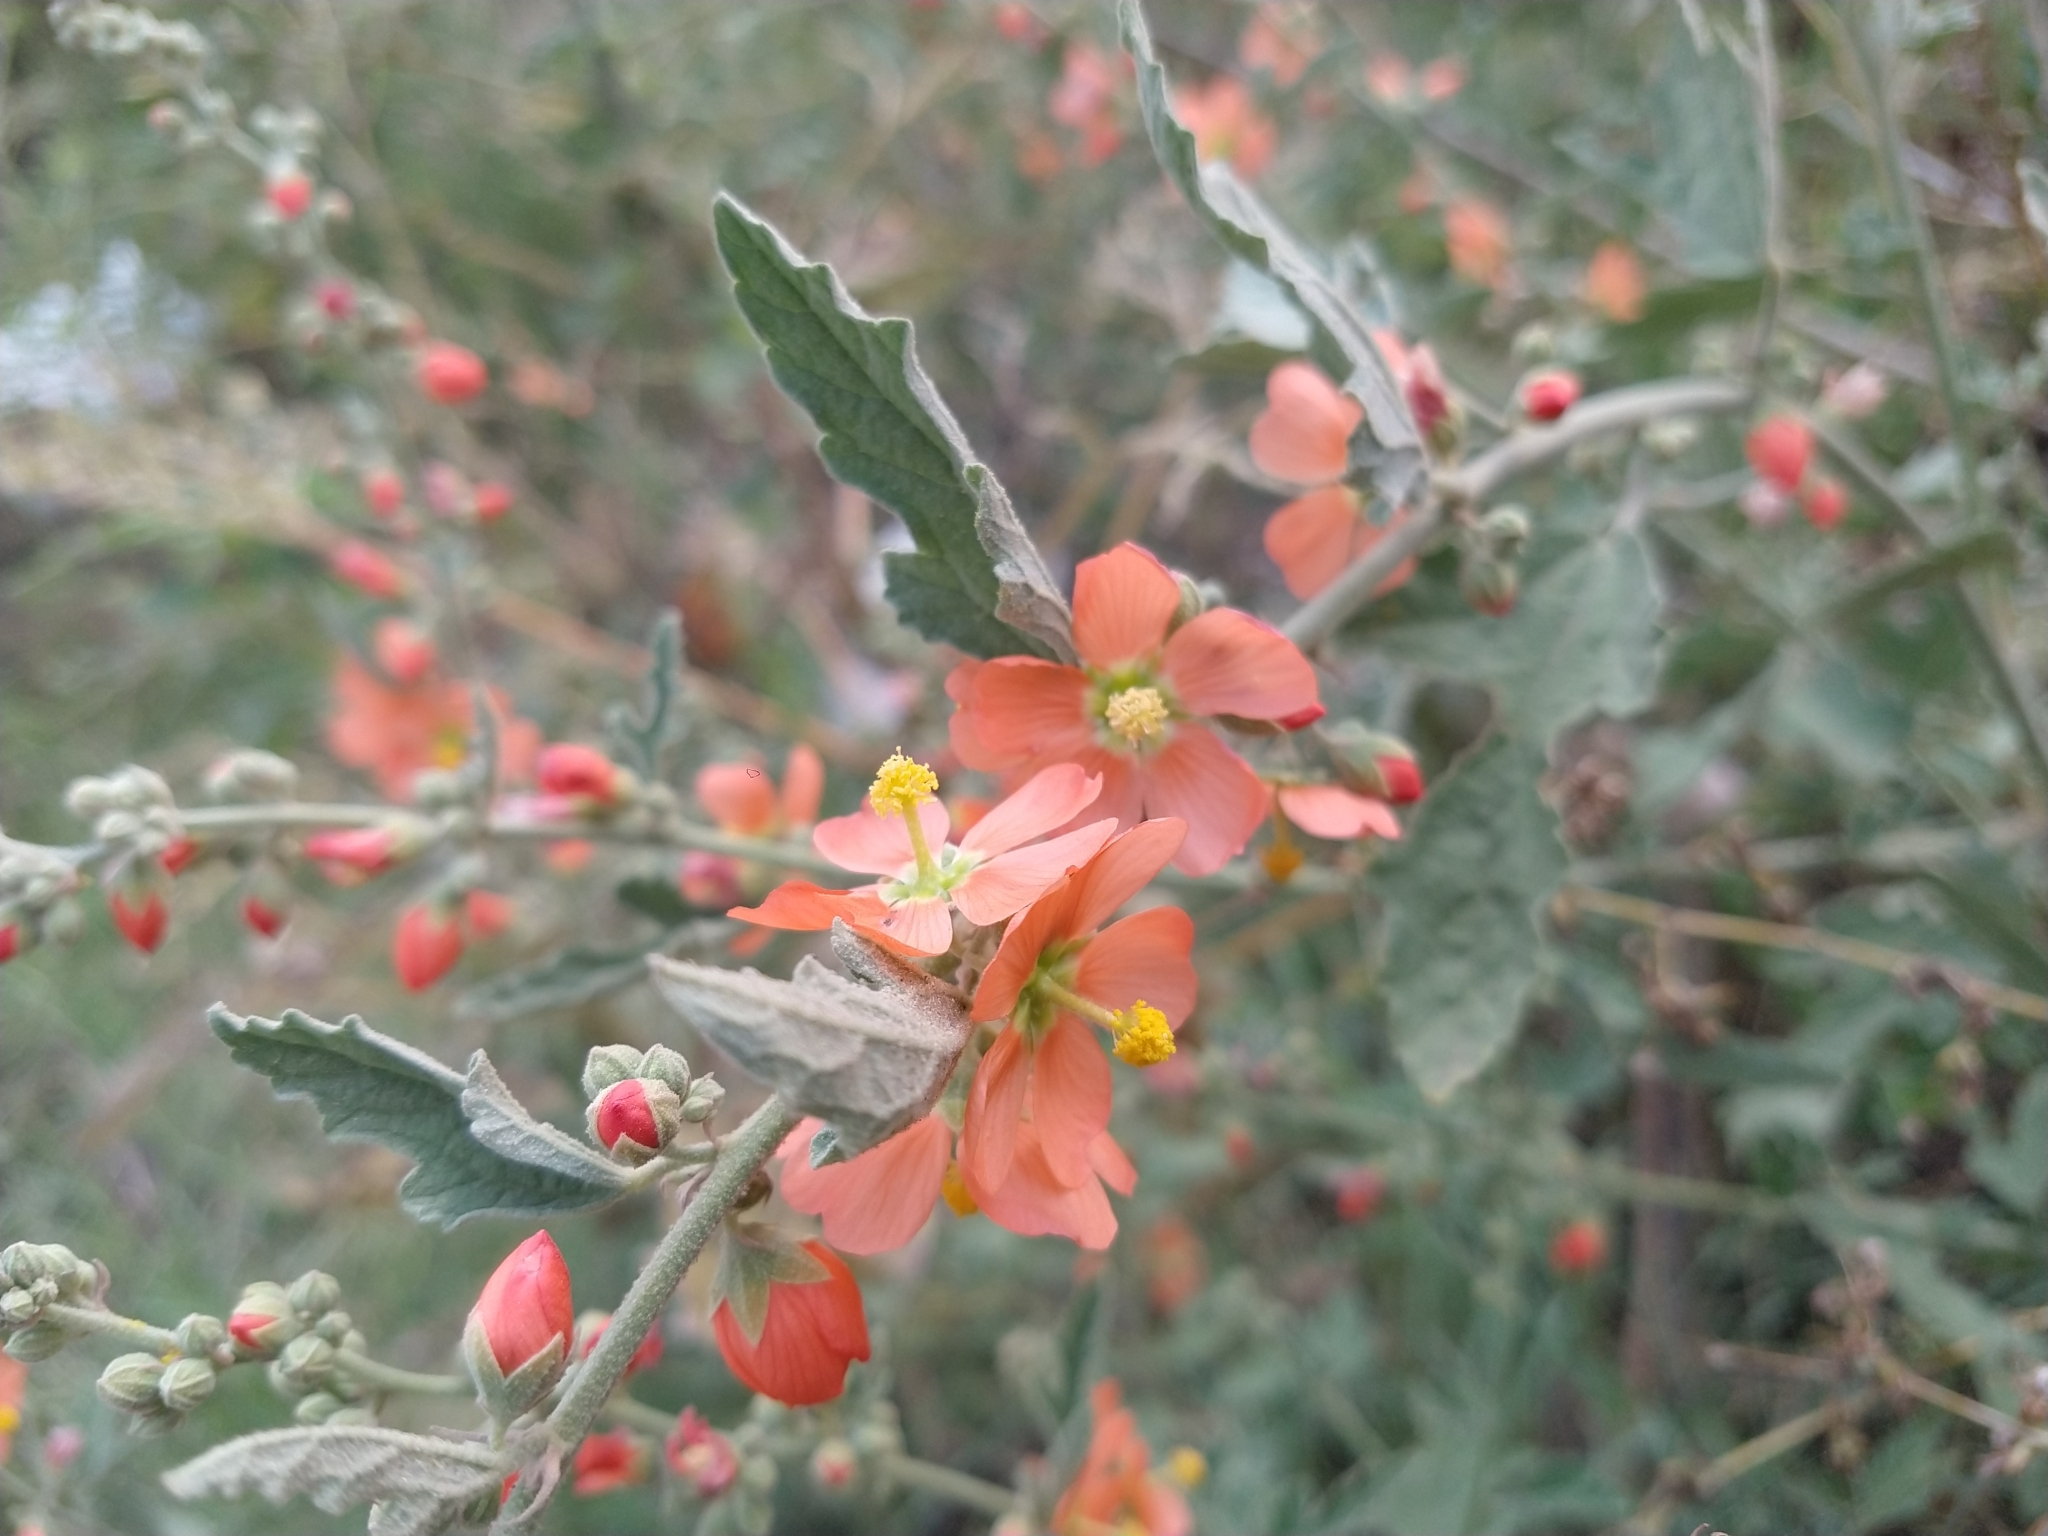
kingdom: Plantae
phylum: Tracheophyta
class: Magnoliopsida
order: Malvales
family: Malvaceae
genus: Sphaeralcea
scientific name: Sphaeralcea fendleri
